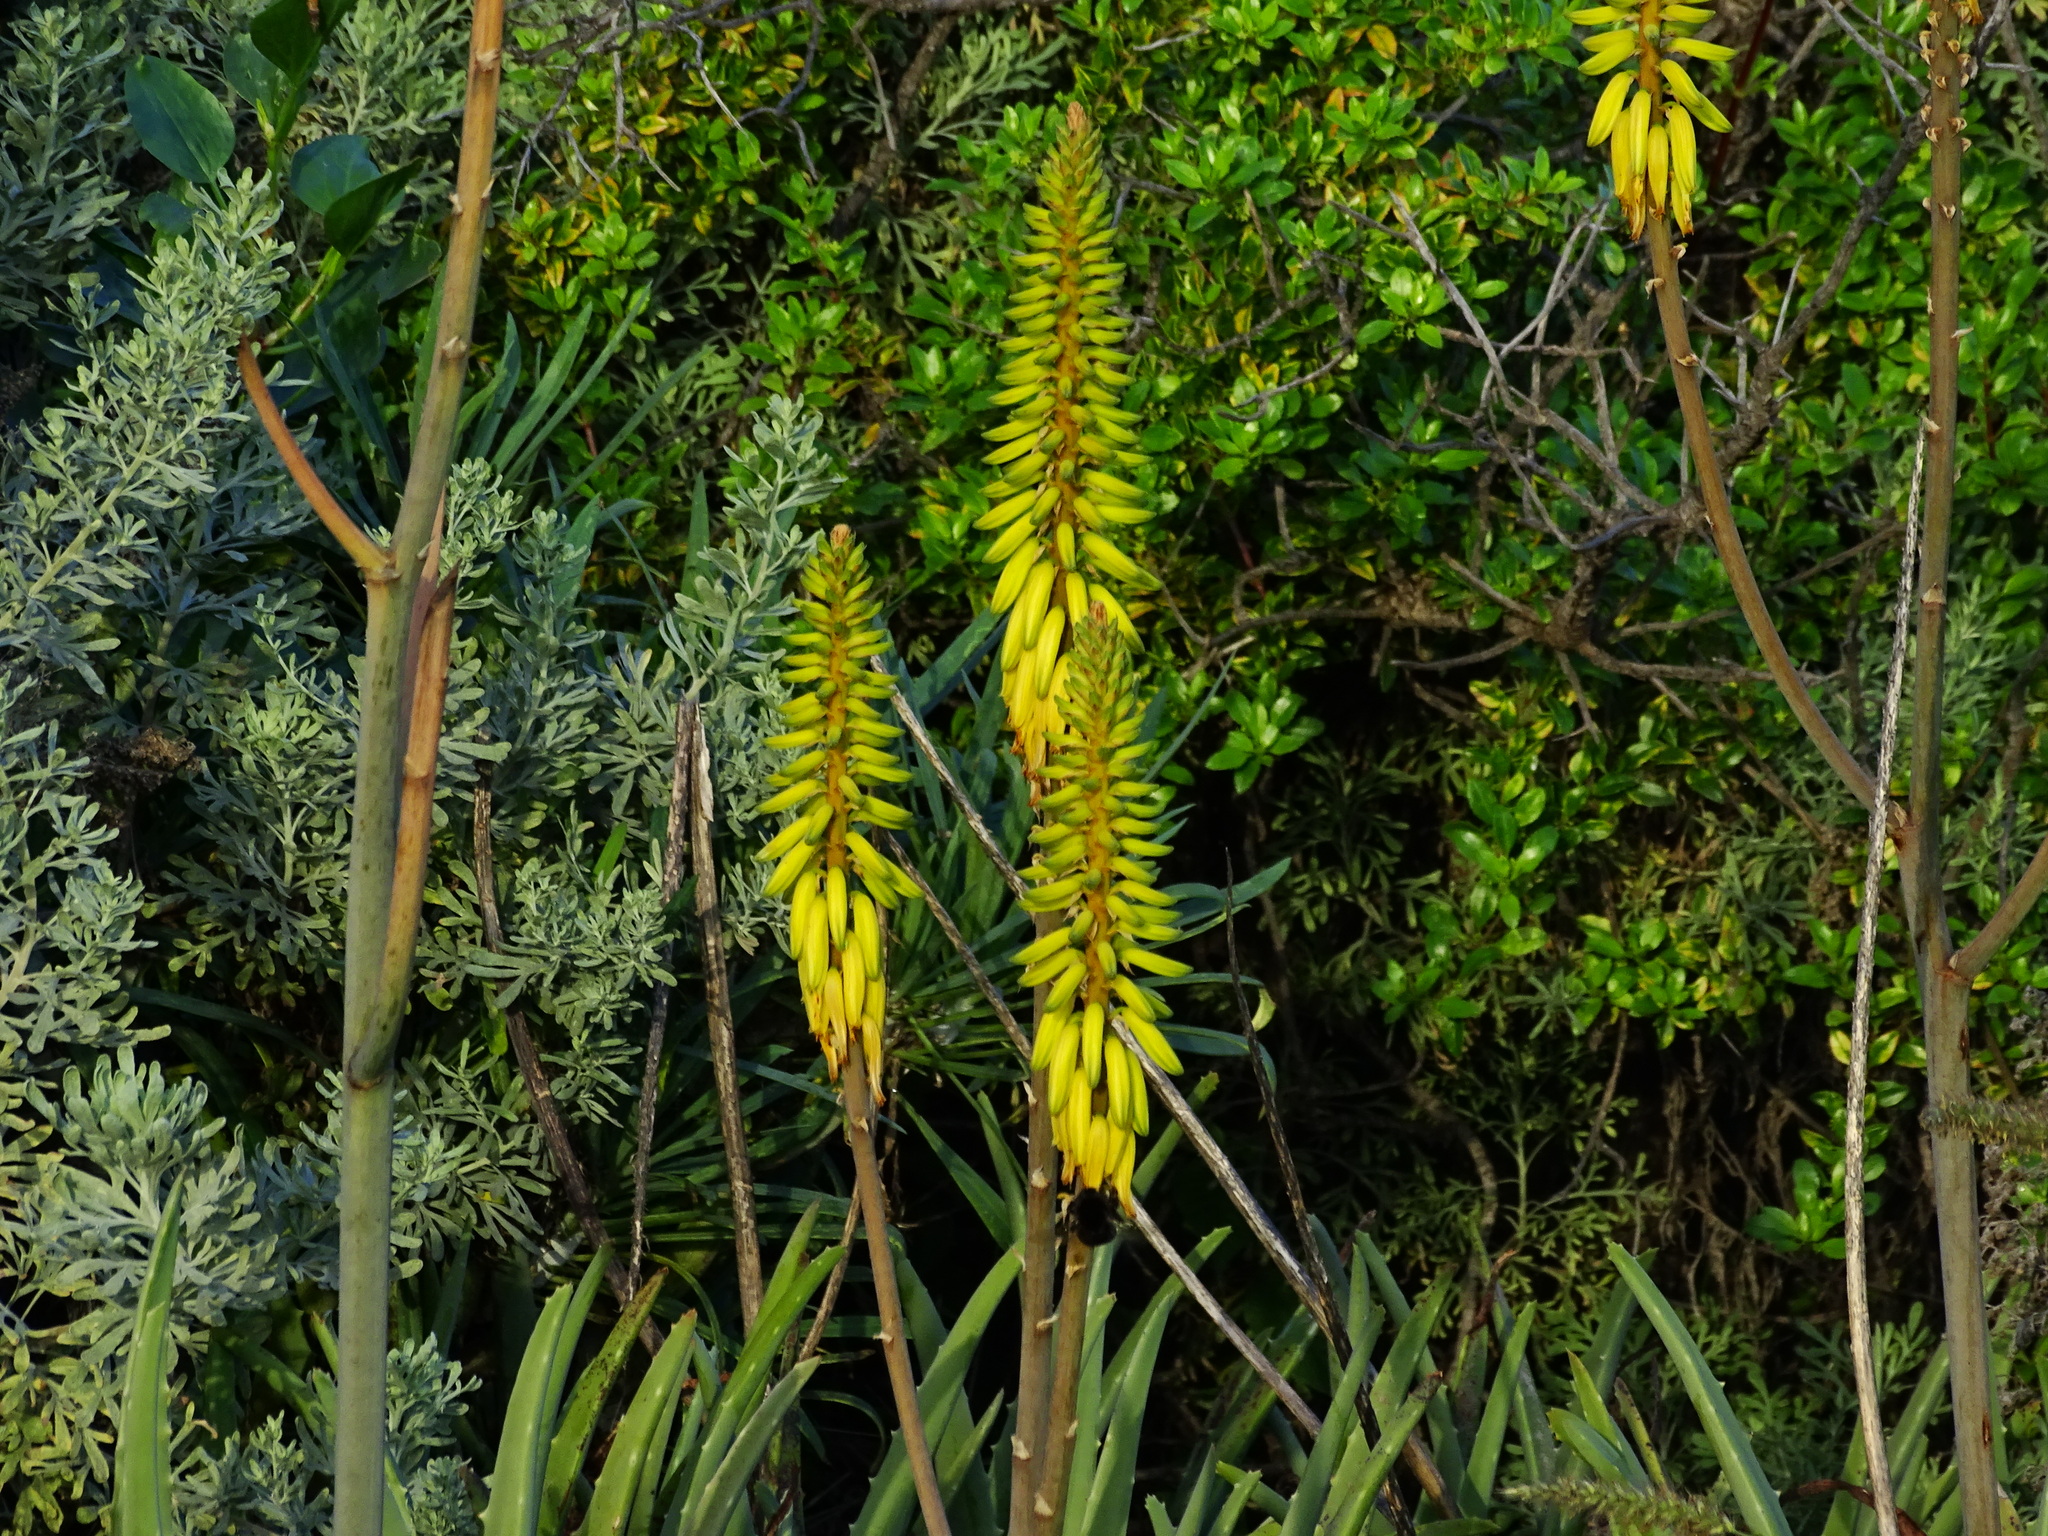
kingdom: Plantae
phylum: Tracheophyta
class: Liliopsida
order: Asparagales
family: Asphodelaceae
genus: Aloe
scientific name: Aloe vera
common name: Barbados aloe
